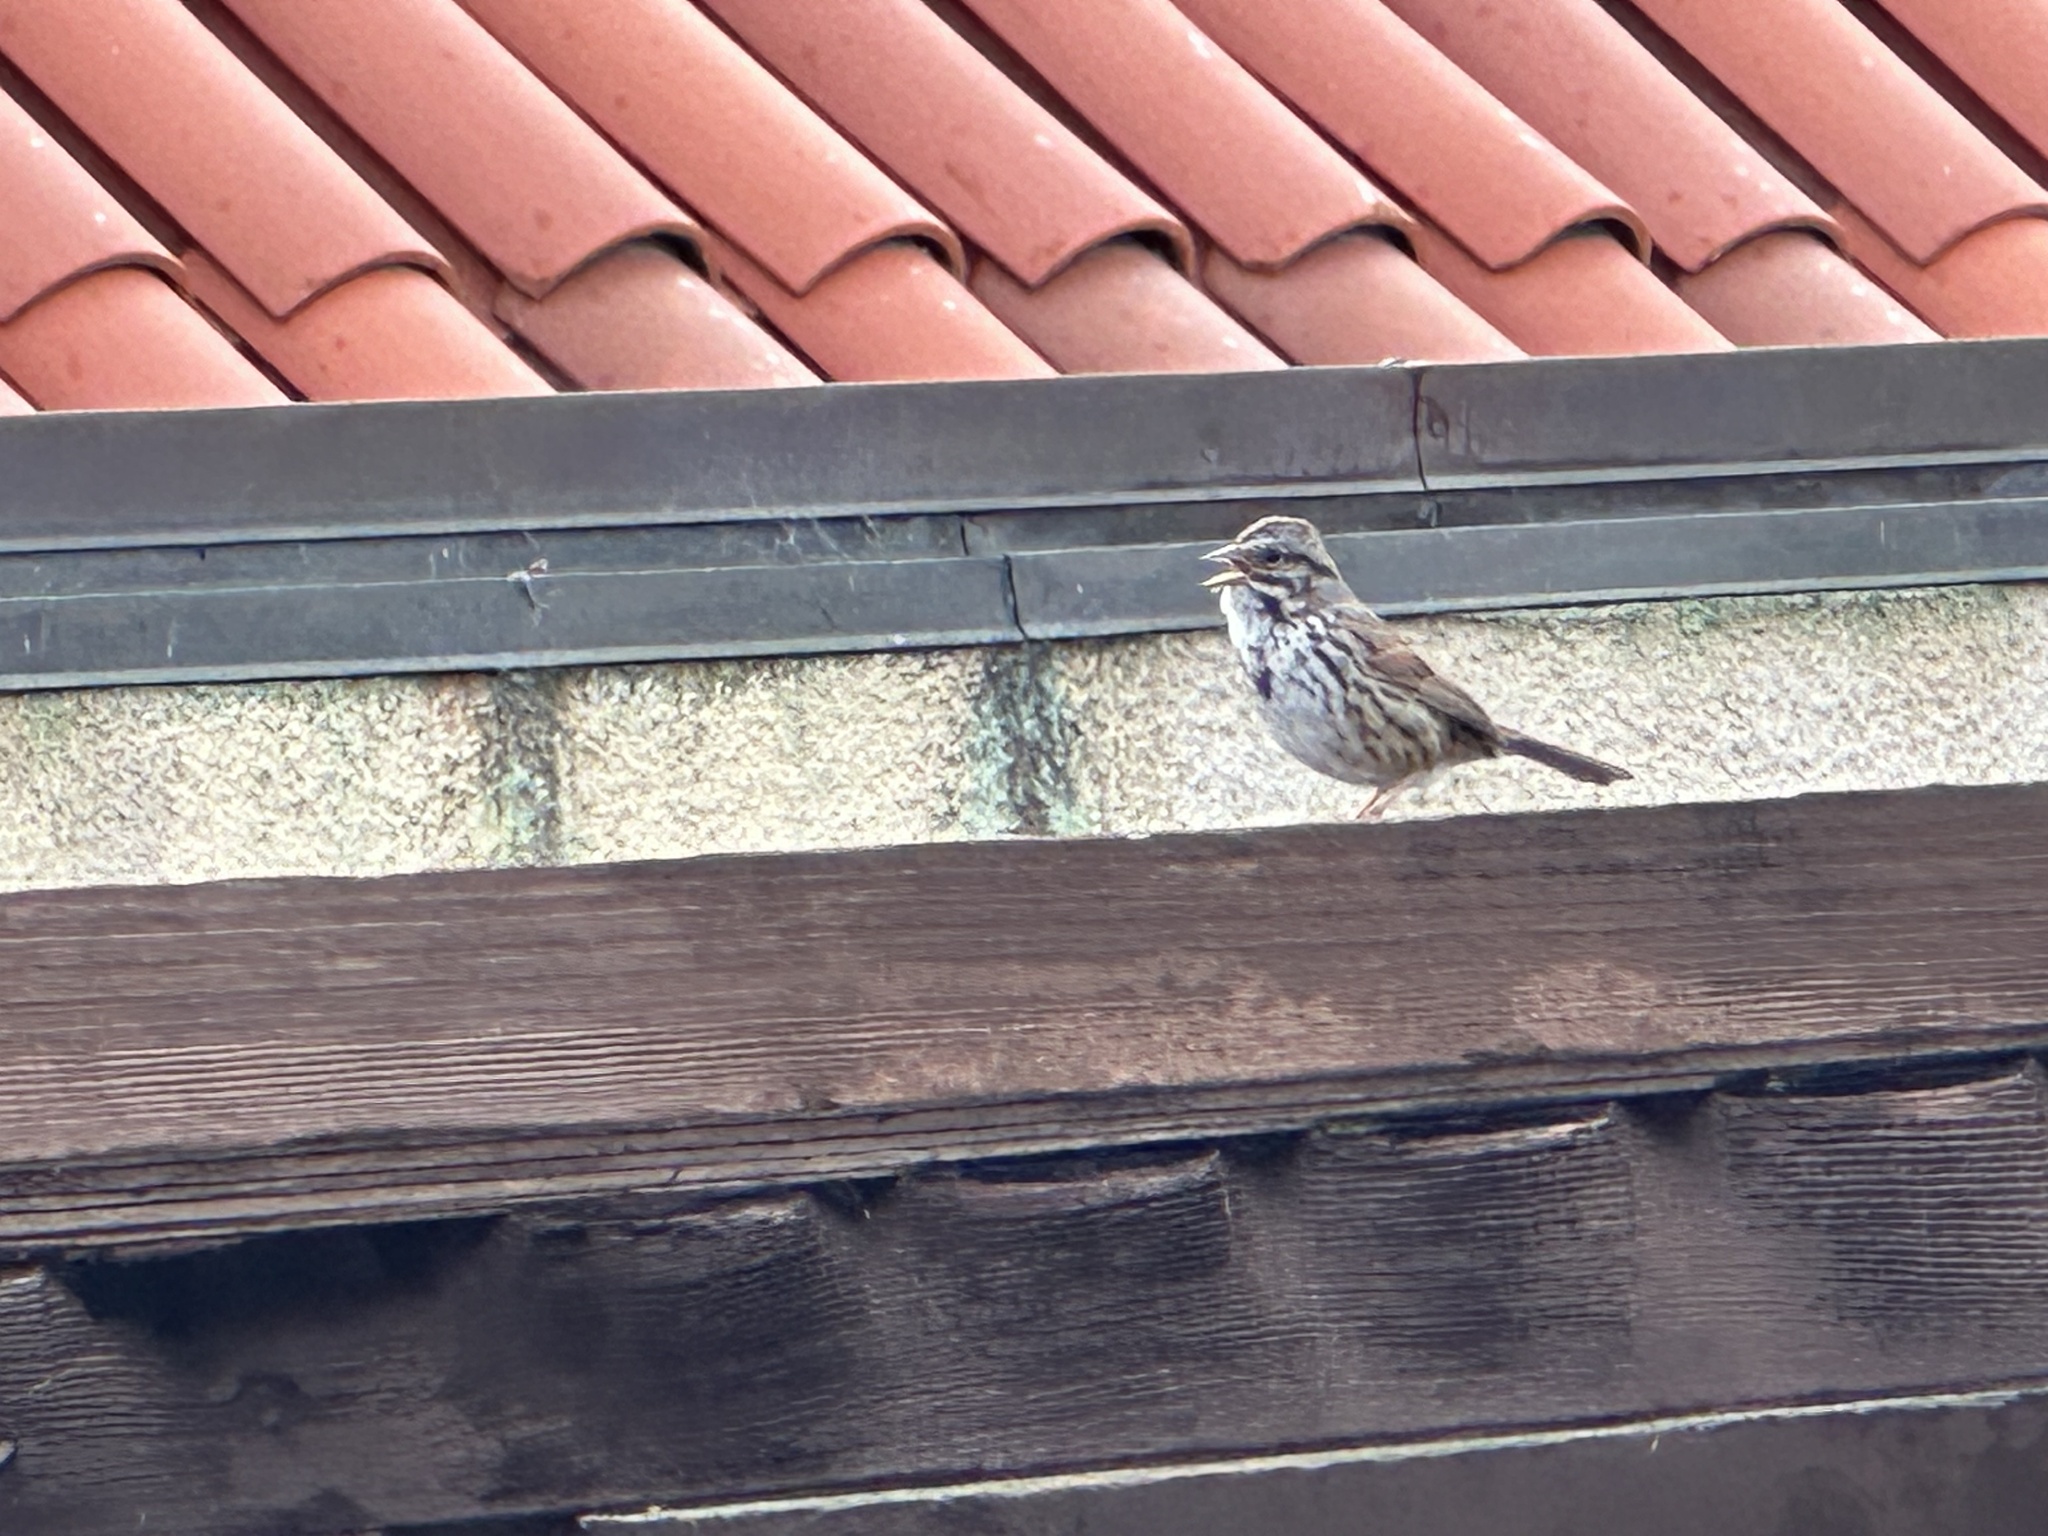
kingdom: Animalia
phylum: Chordata
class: Aves
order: Passeriformes
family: Passerellidae
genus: Melospiza
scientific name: Melospiza melodia
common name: Song sparrow
